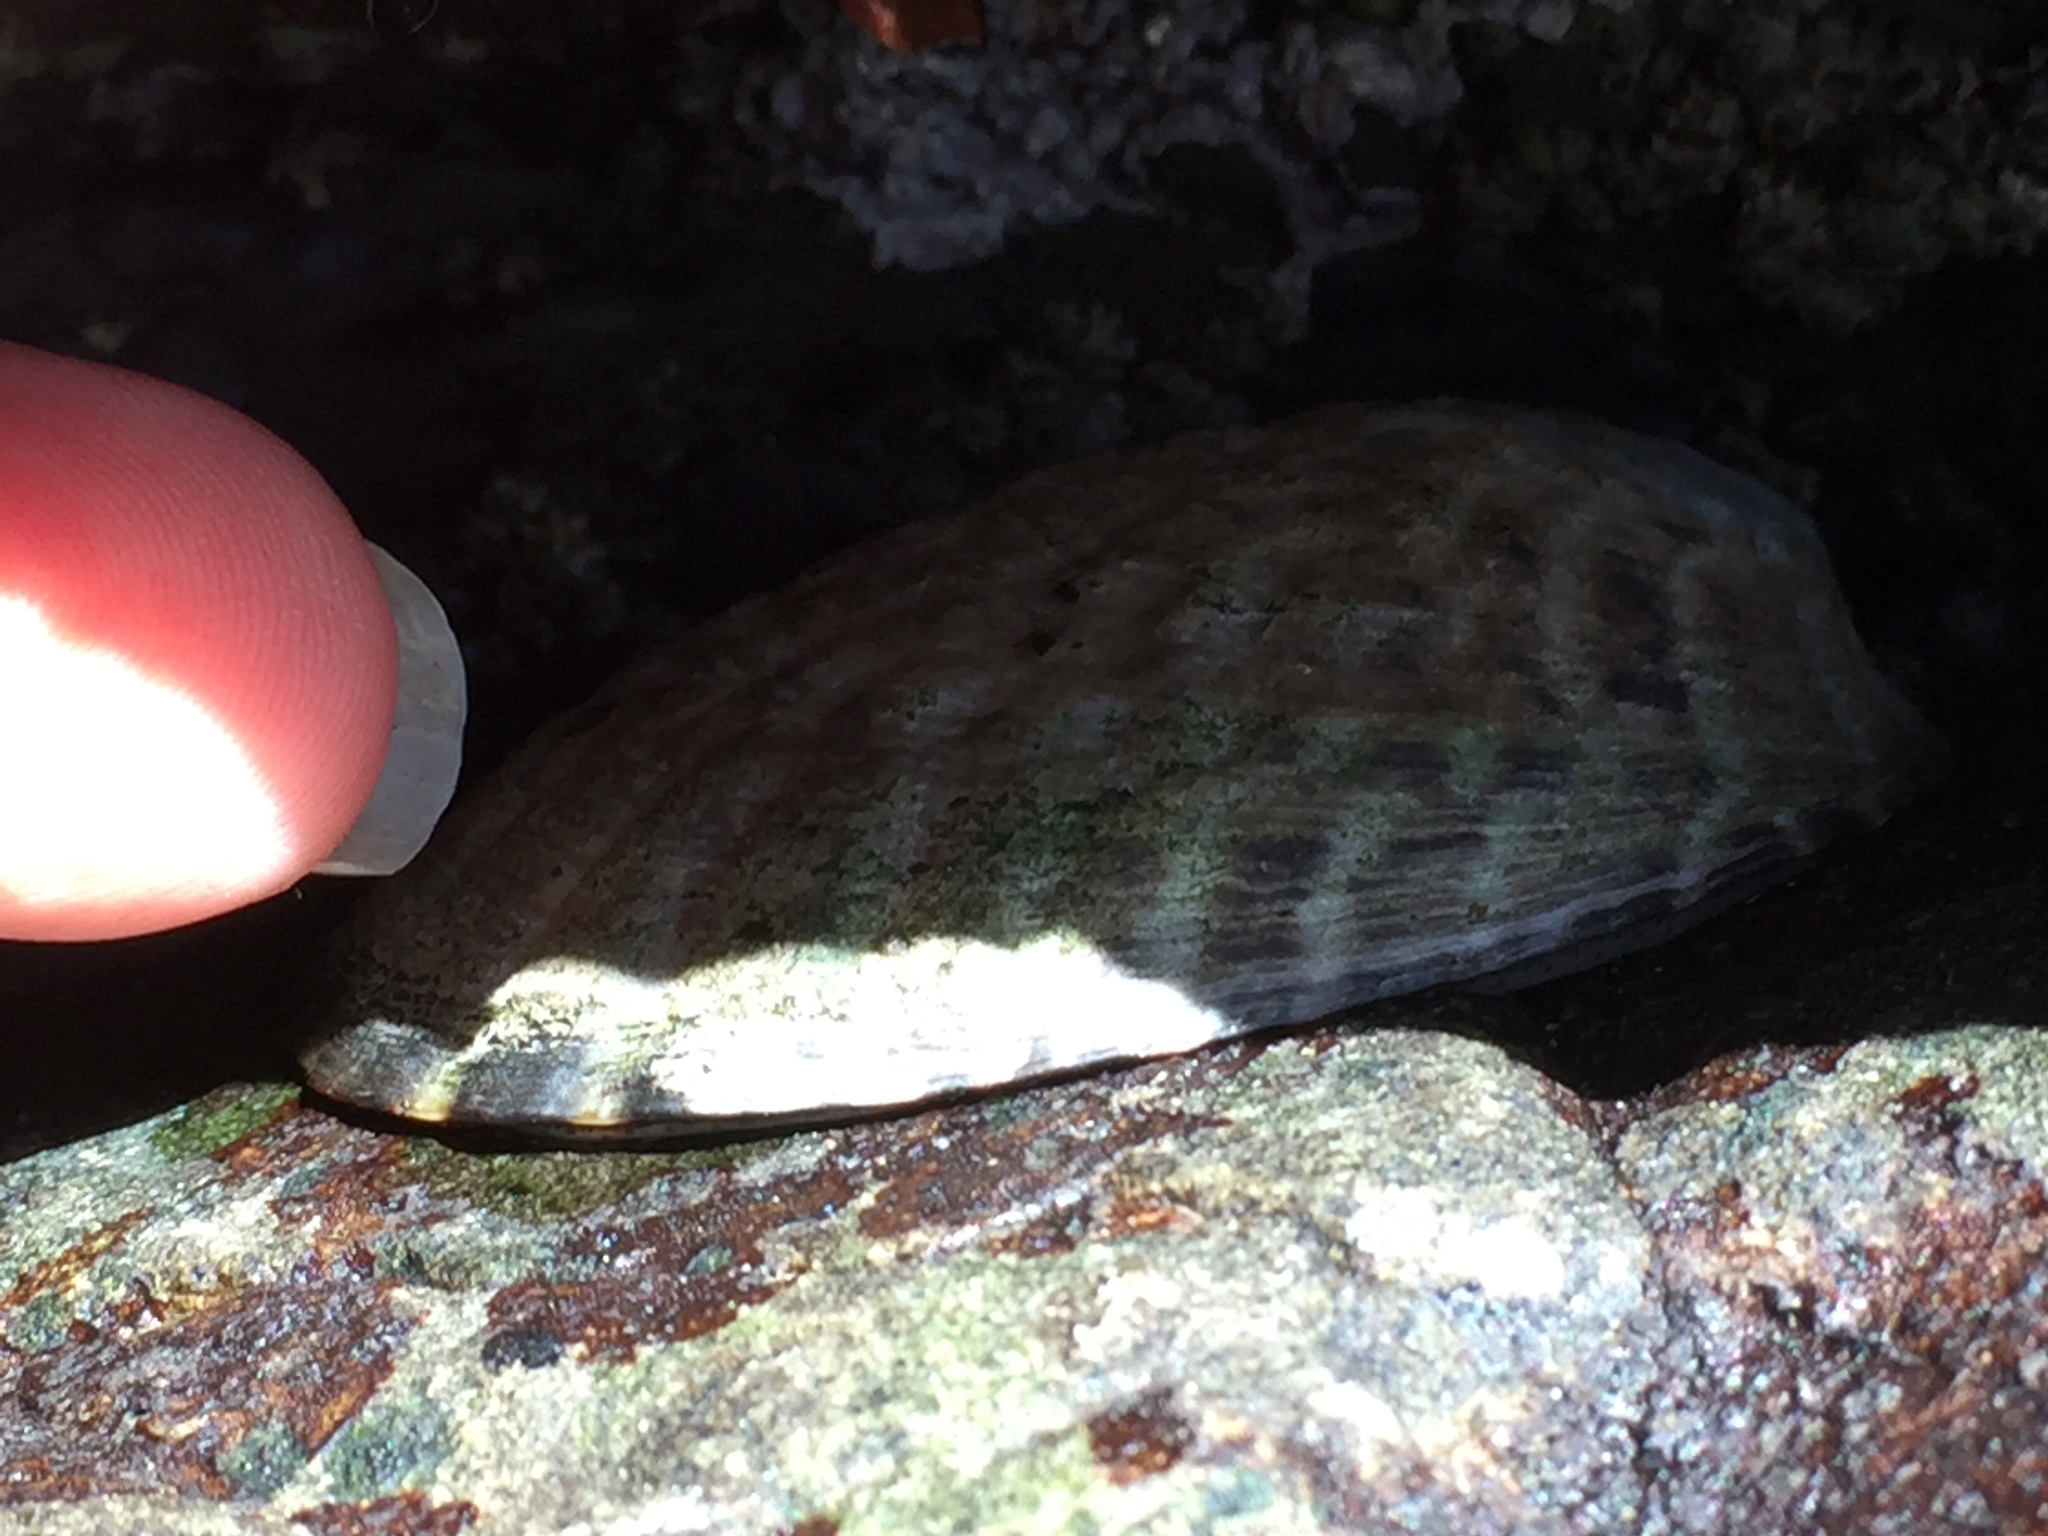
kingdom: Animalia
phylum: Mollusca
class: Gastropoda
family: Lottiidae
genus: Lottia
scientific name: Lottia gigantea
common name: Owl limpet
